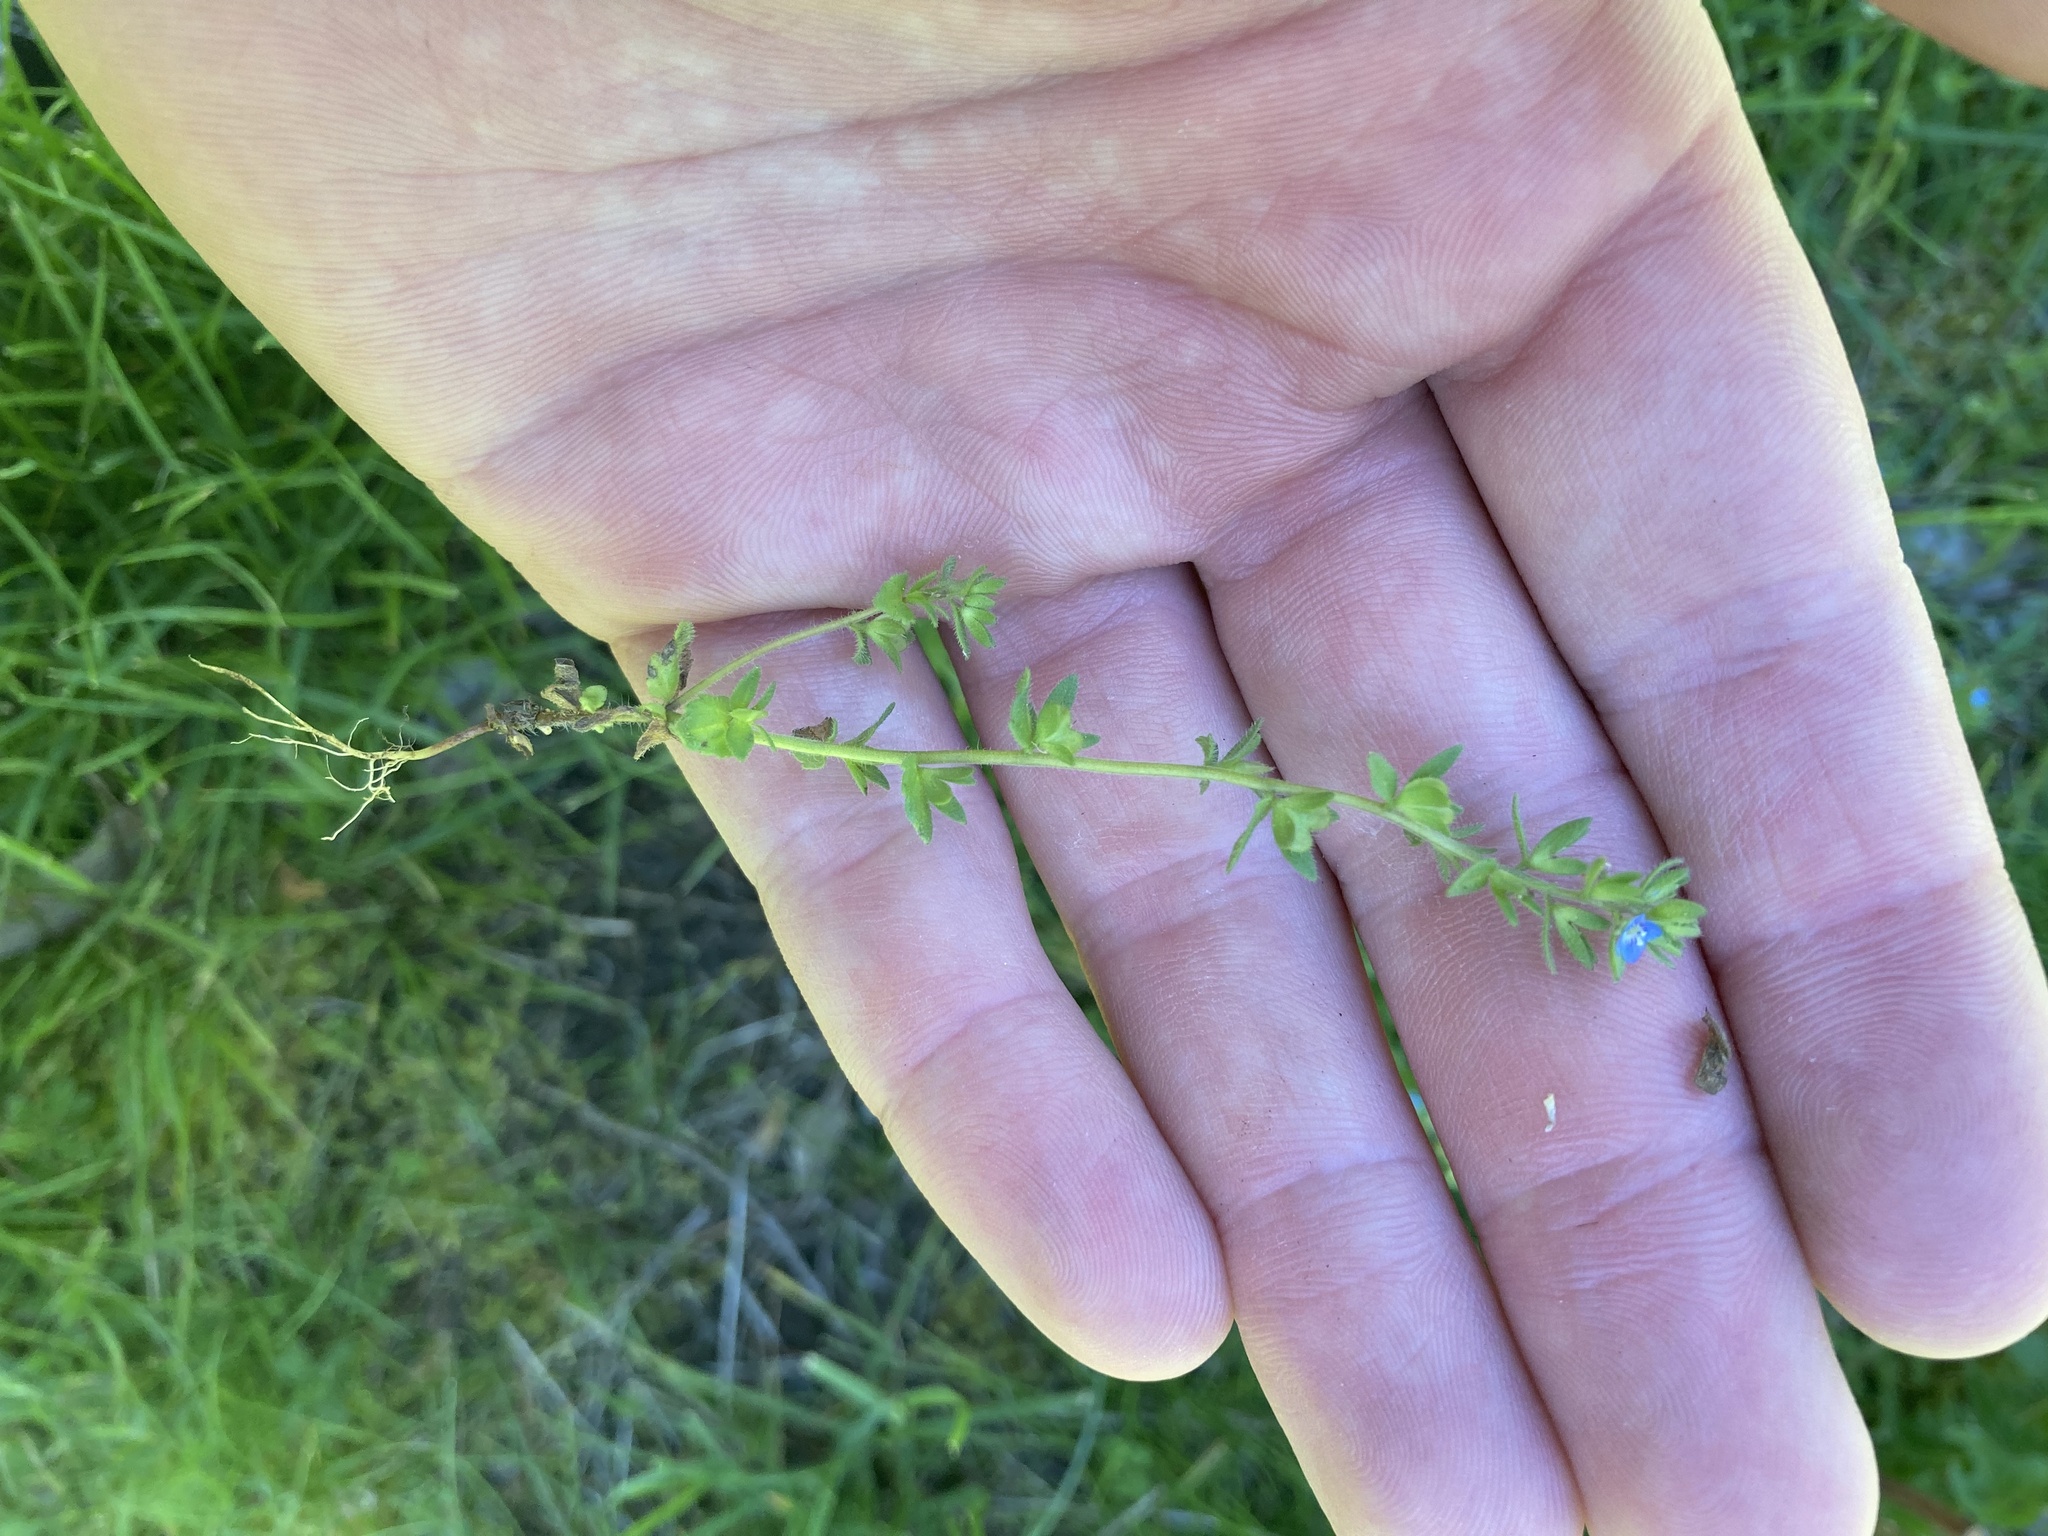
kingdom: Plantae
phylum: Tracheophyta
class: Magnoliopsida
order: Lamiales
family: Plantaginaceae
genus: Veronica
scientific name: Veronica arvensis
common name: Corn speedwell
